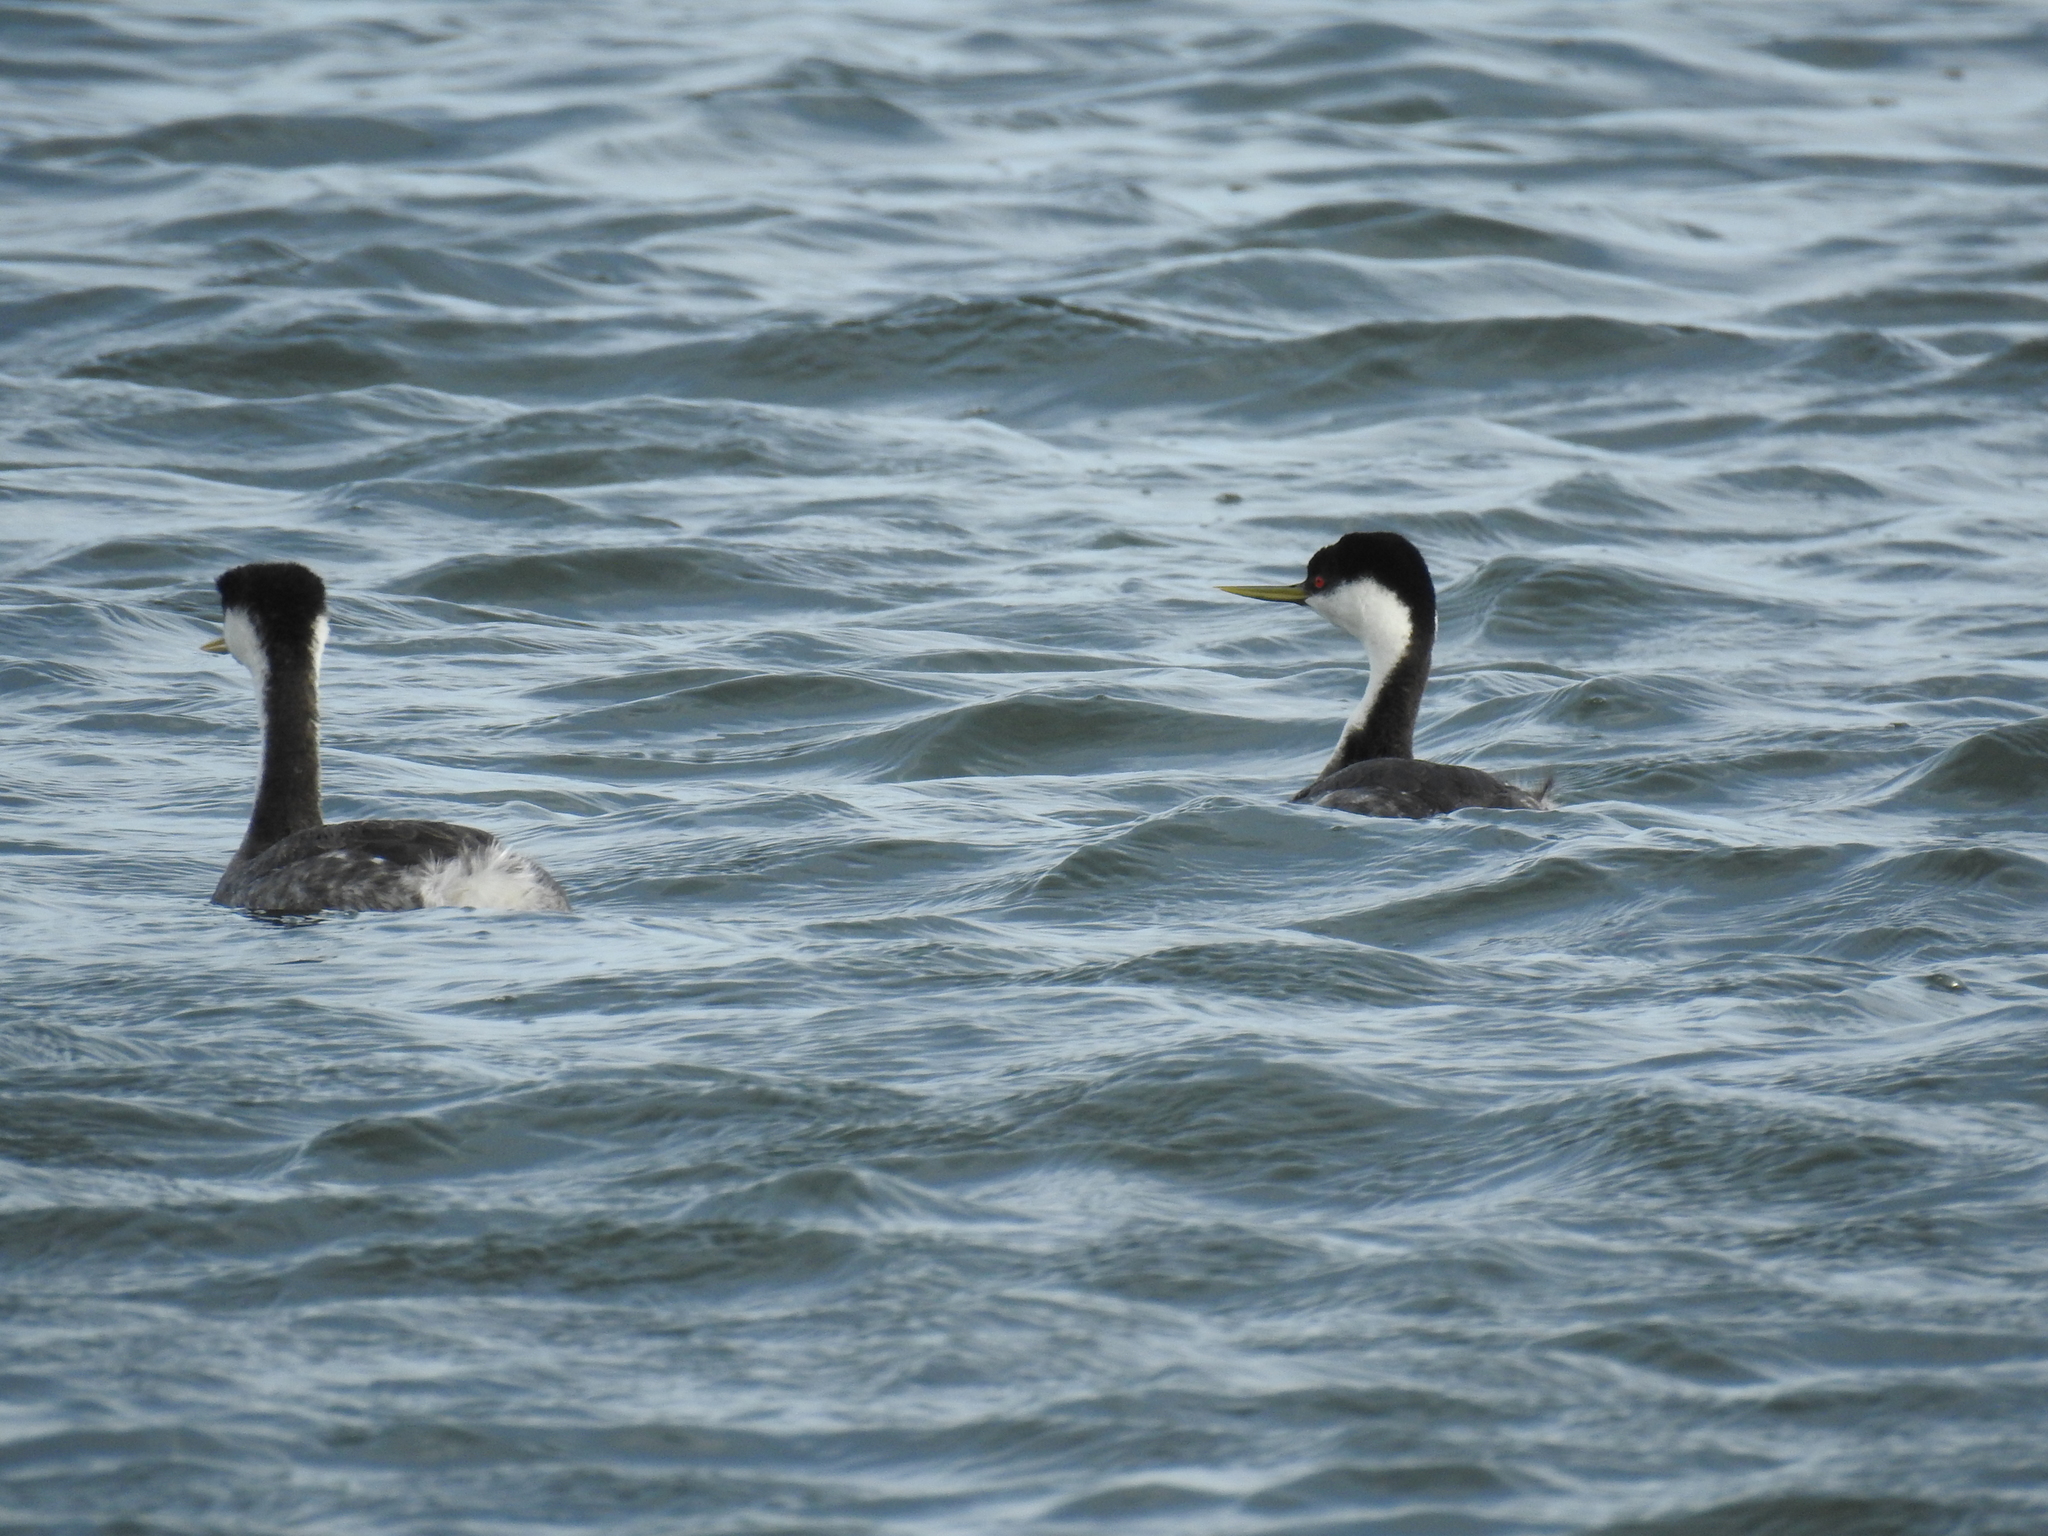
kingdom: Animalia
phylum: Chordata
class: Aves
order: Podicipediformes
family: Podicipedidae
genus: Aechmophorus
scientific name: Aechmophorus occidentalis
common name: Western grebe
